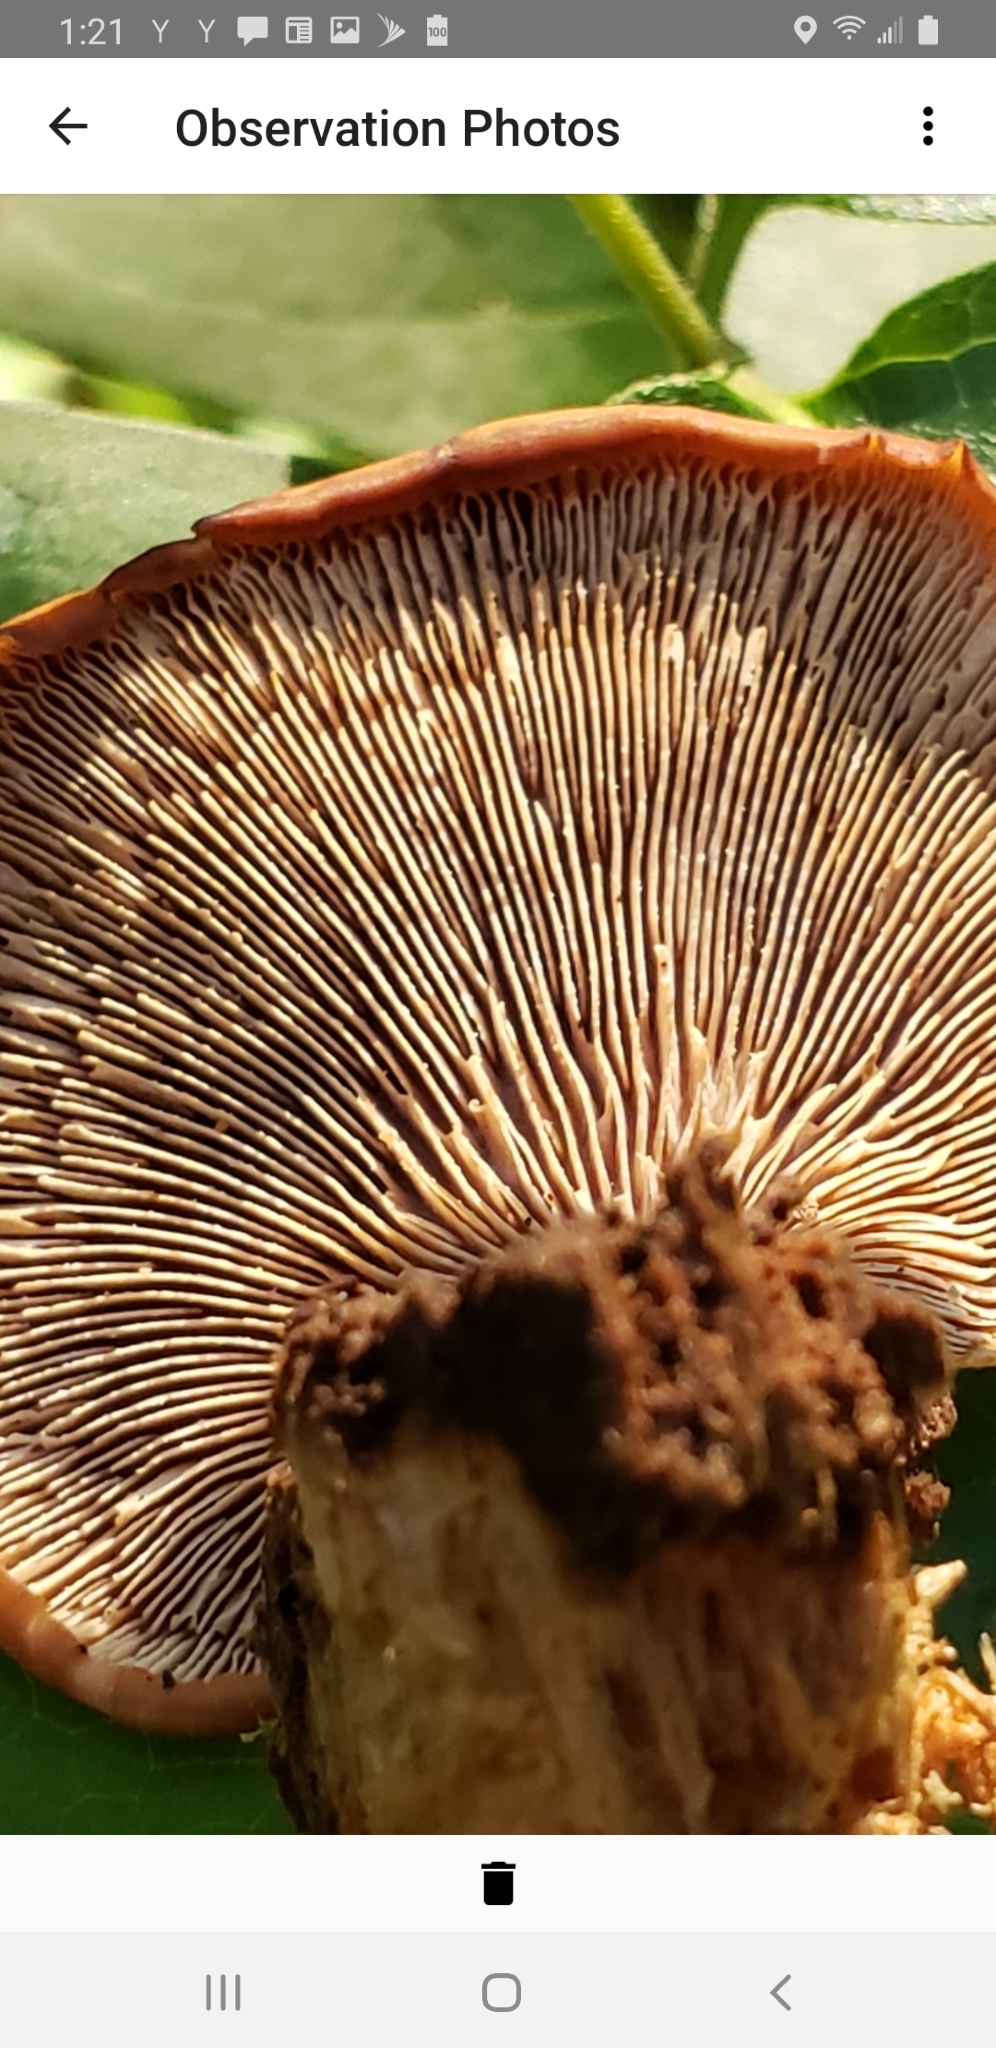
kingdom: Fungi
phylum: Basidiomycota
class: Agaricomycetes
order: Russulales
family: Auriscalpiaceae
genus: Lentinellus
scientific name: Lentinellus ursinus
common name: Bear lentinus
